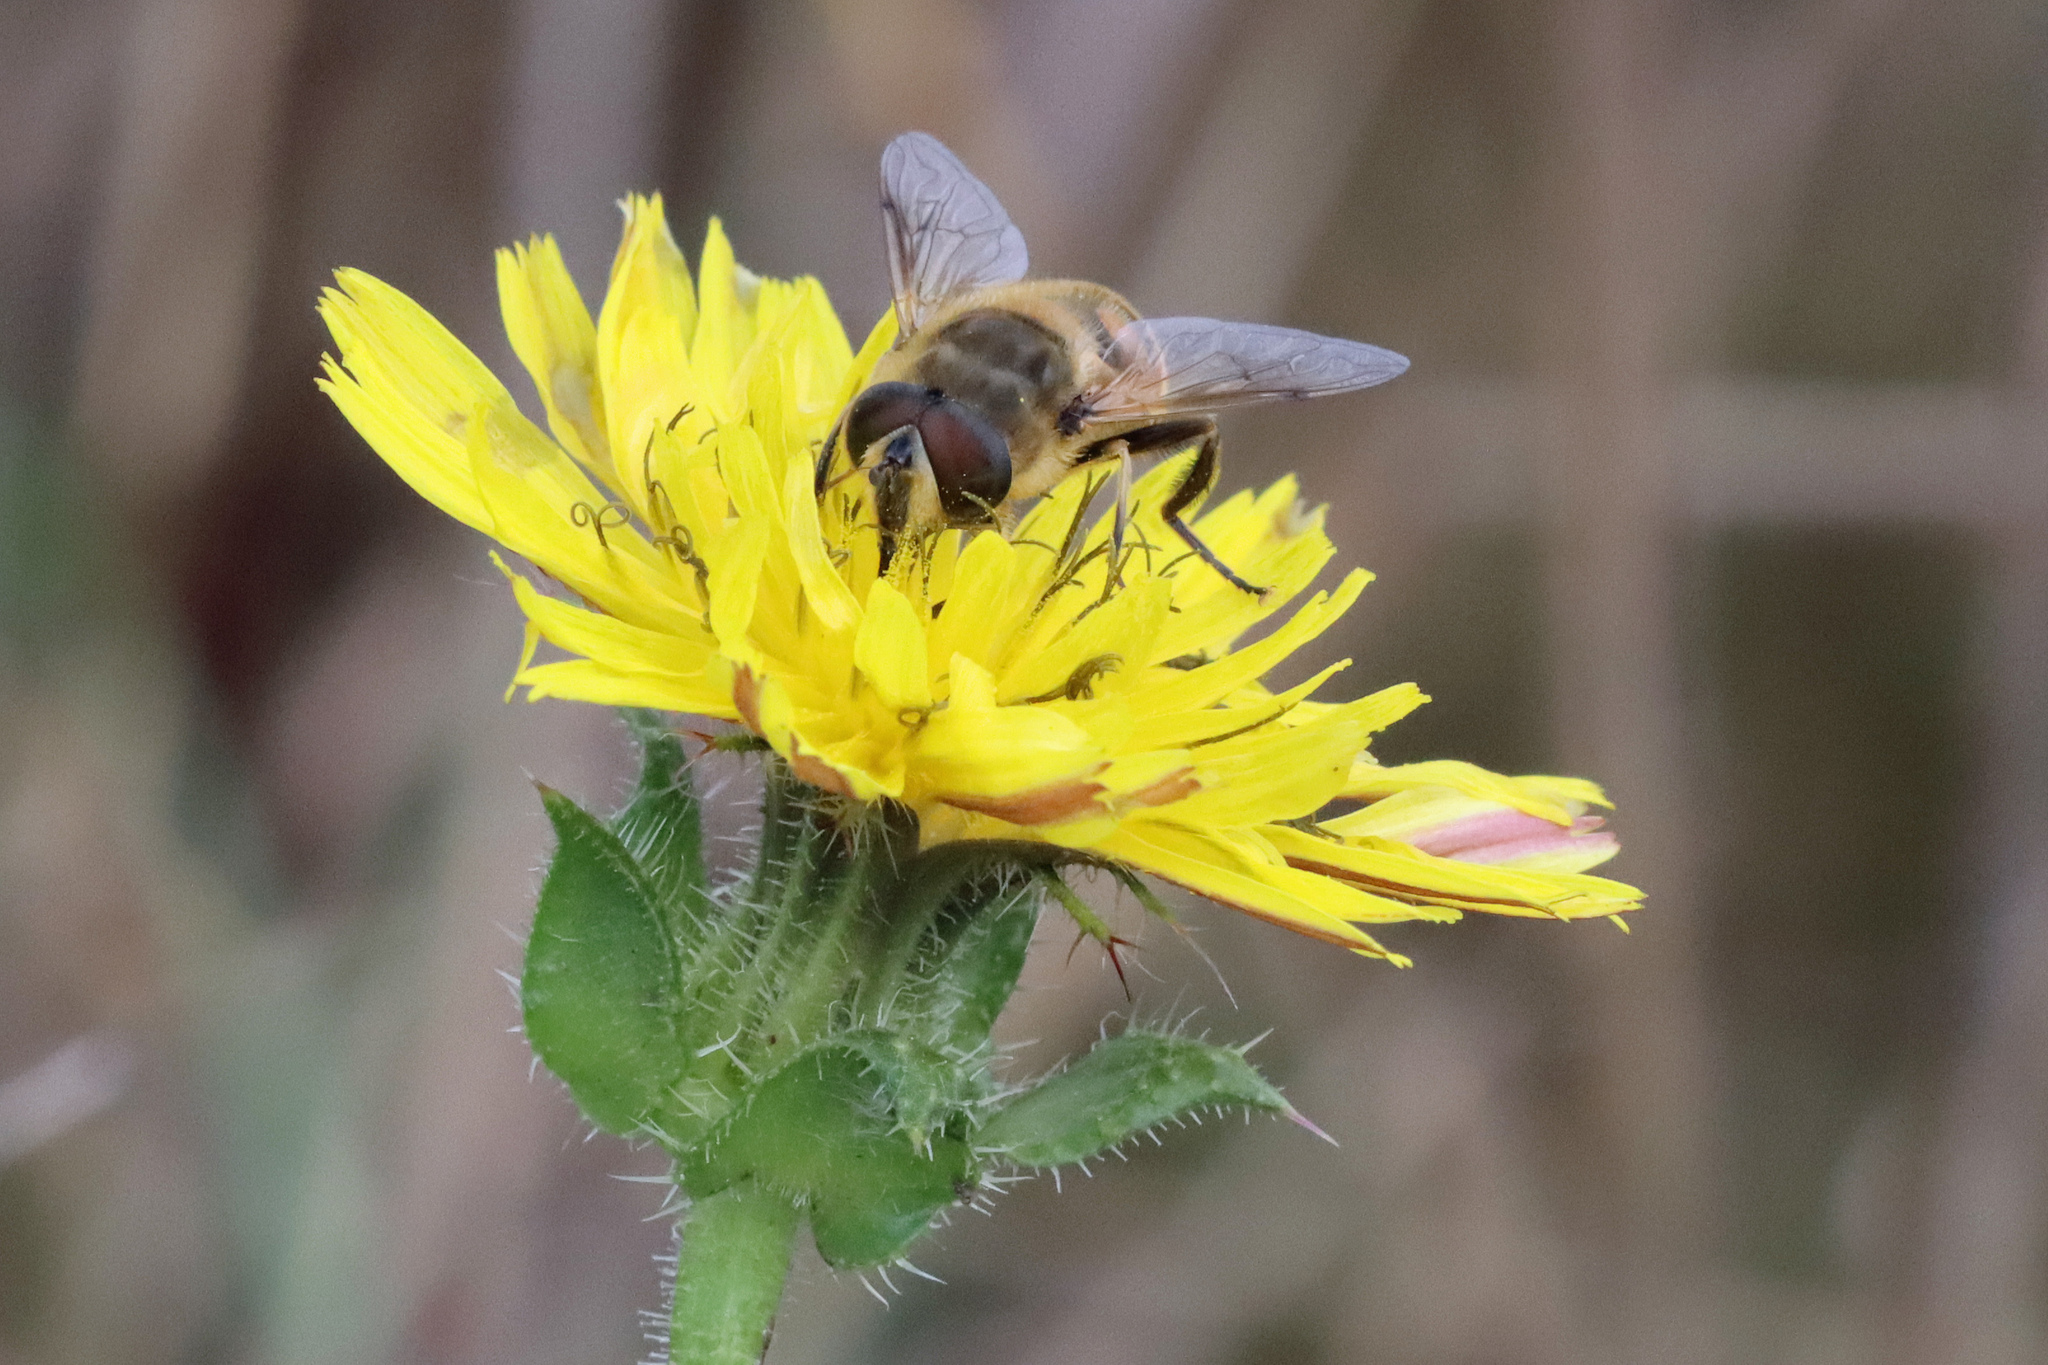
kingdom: Animalia
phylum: Arthropoda
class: Insecta
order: Diptera
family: Syrphidae
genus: Eristalis
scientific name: Eristalis tenax
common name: Drone fly
